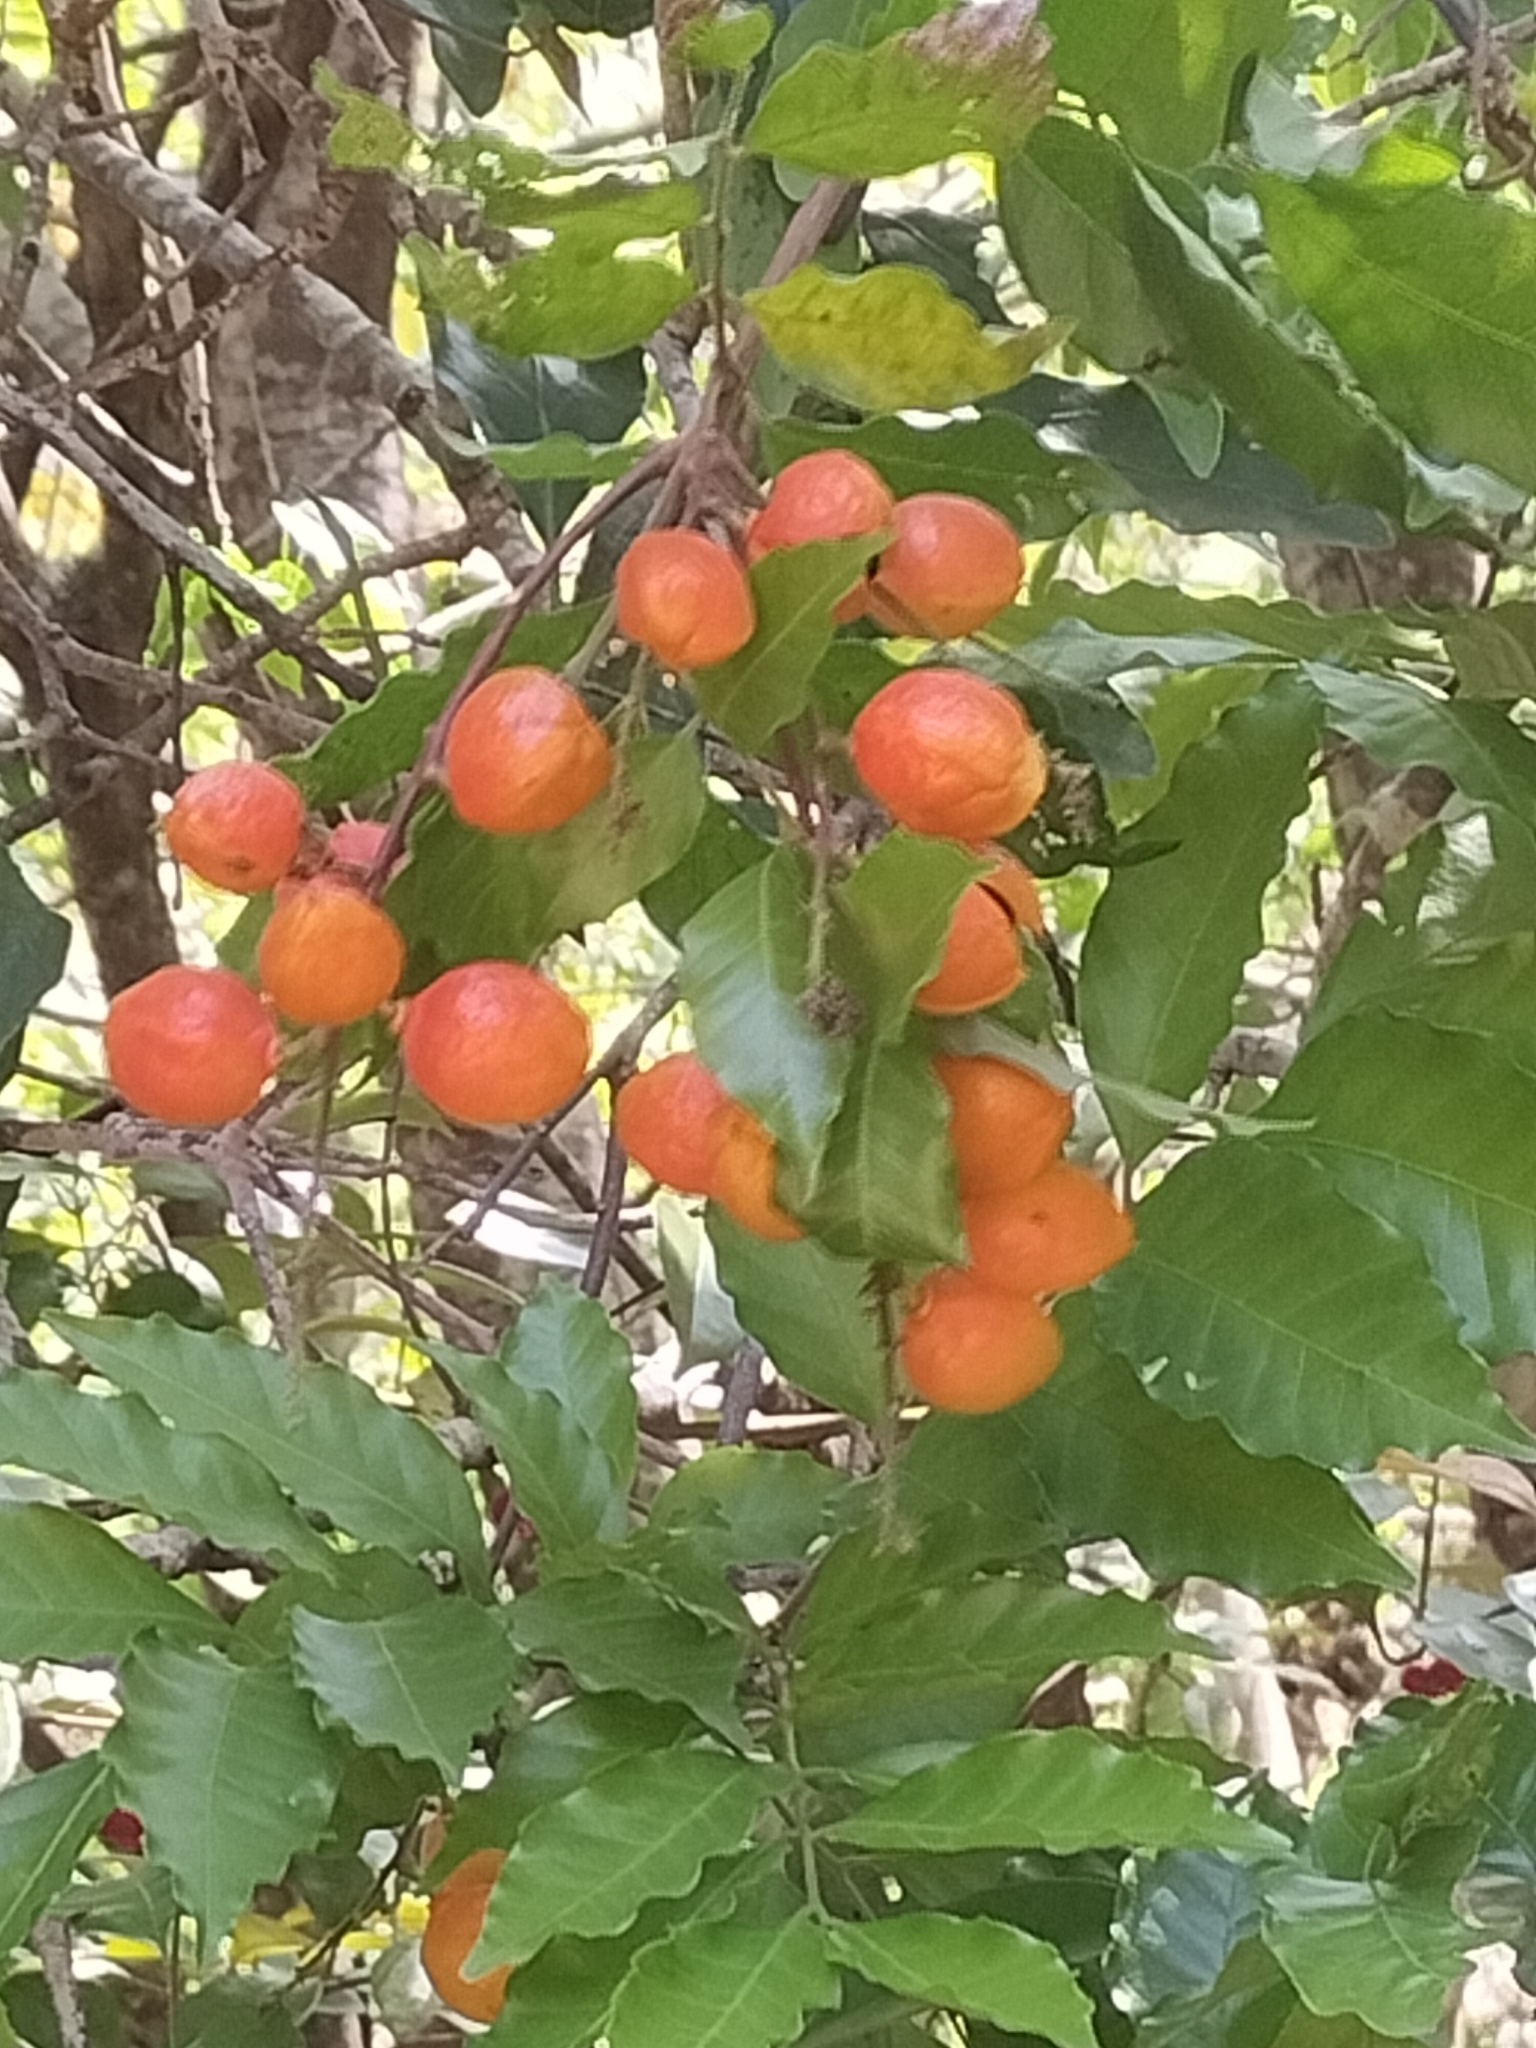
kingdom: Plantae
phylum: Tracheophyta
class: Magnoliopsida
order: Sapindales
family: Sapindaceae
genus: Toechima
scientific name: Toechima daemelianum
